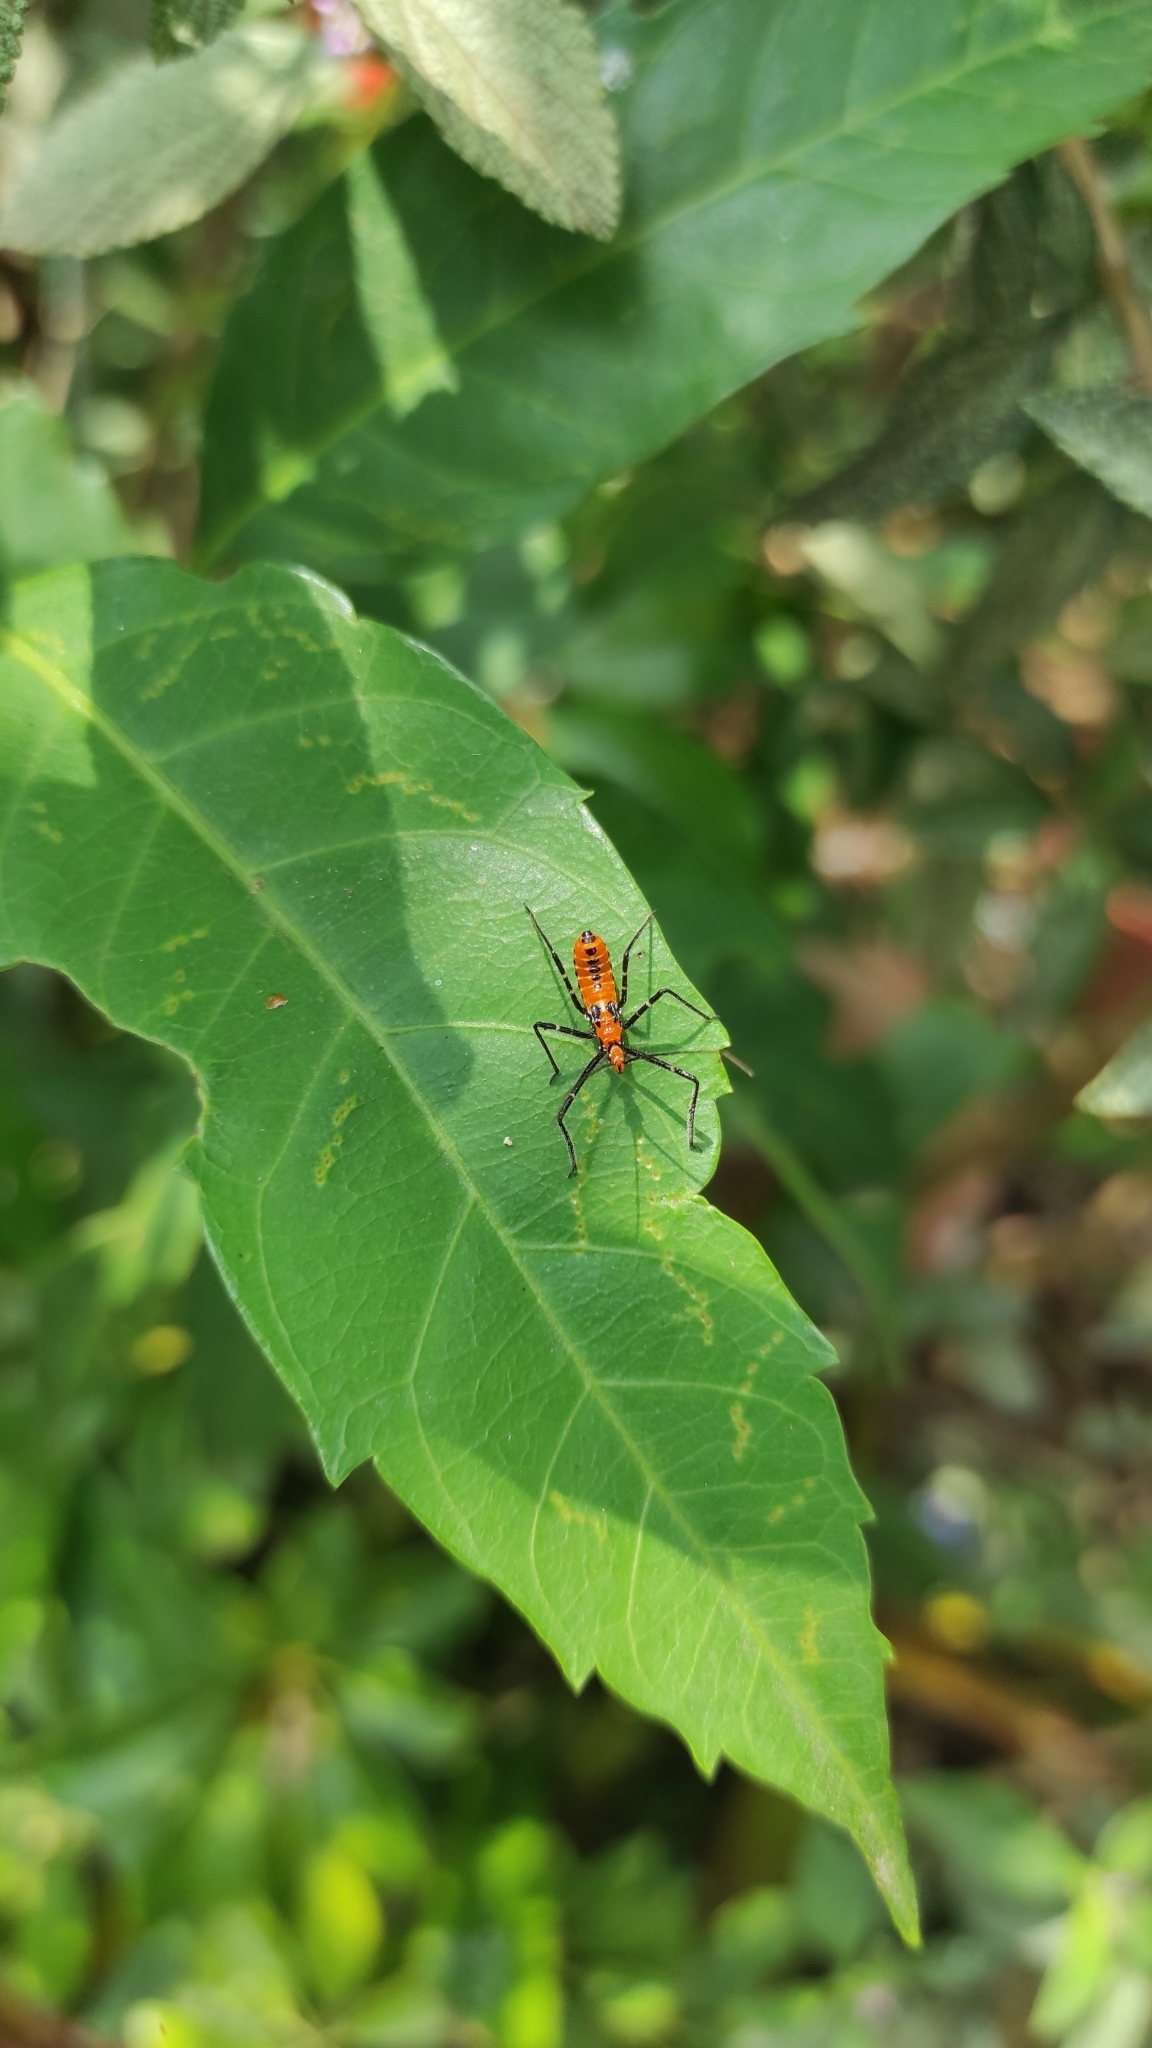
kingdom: Animalia
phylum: Arthropoda
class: Insecta
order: Hemiptera
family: Reduviidae
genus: Zelus
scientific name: Zelus longipes
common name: Milkweed assassin bug
